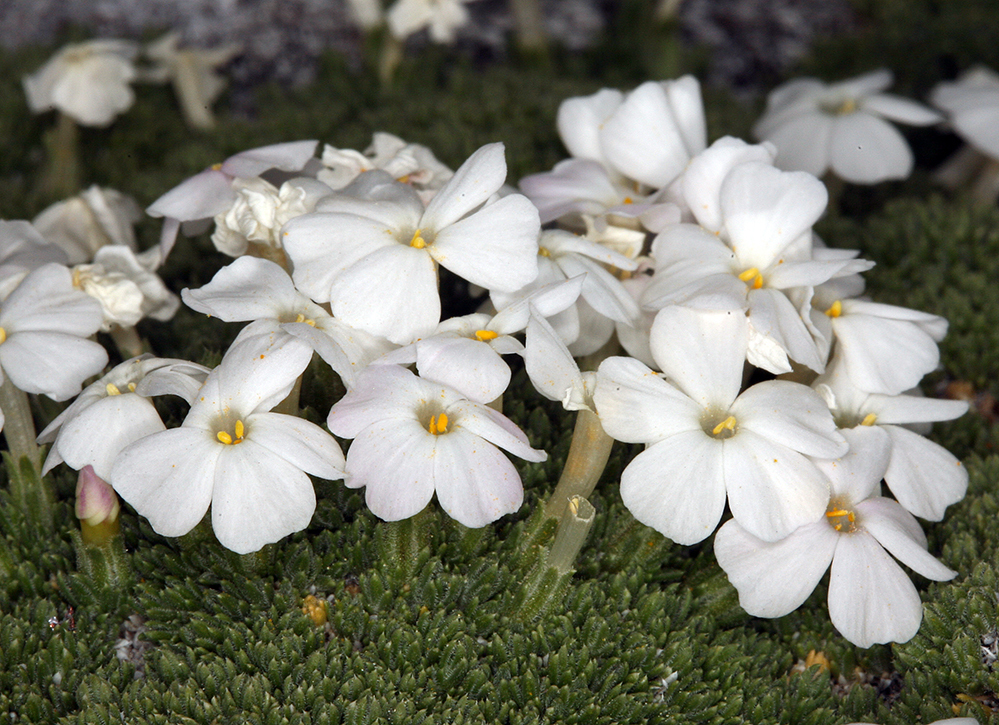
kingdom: Plantae
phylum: Tracheophyta
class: Magnoliopsida
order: Ericales
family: Polemoniaceae
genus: Phlox
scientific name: Phlox condensata
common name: Compact phlox
